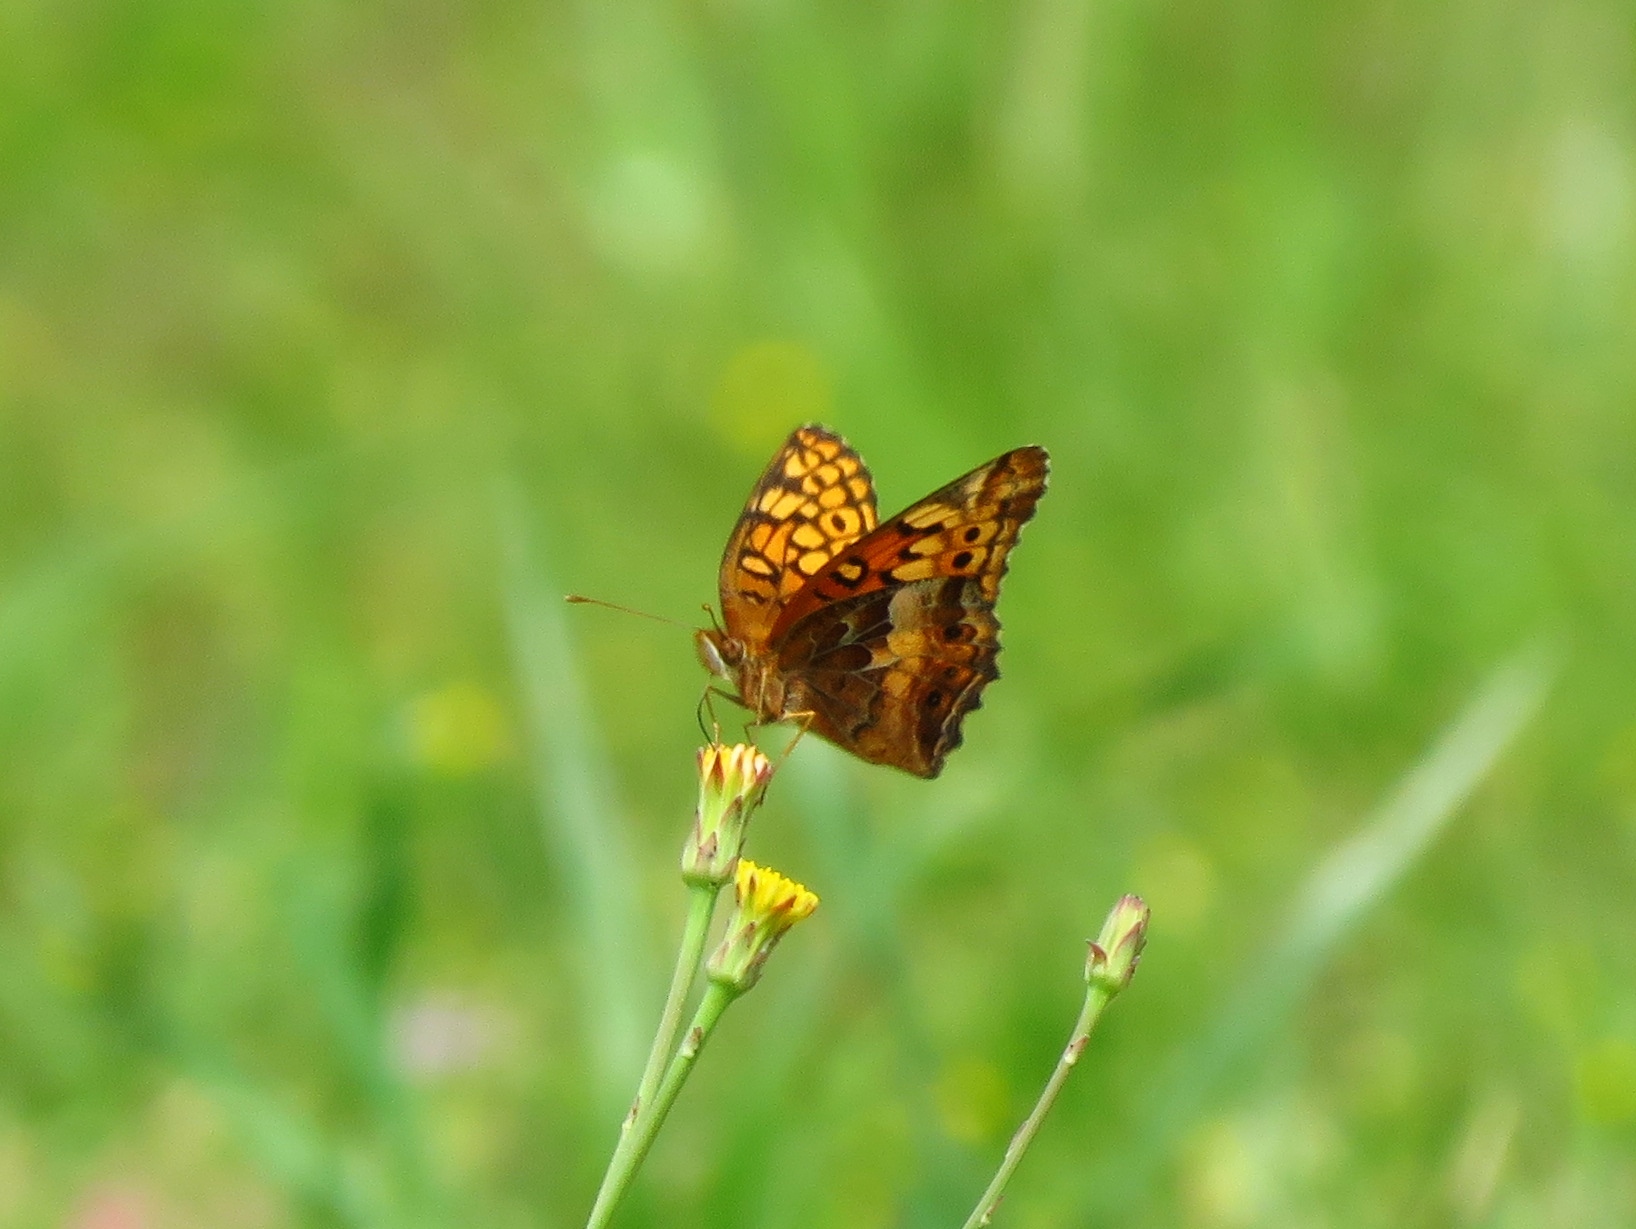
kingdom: Animalia
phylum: Arthropoda
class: Insecta
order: Lepidoptera
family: Nymphalidae
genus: Euptoieta
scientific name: Euptoieta claudia
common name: Variegated fritillary
